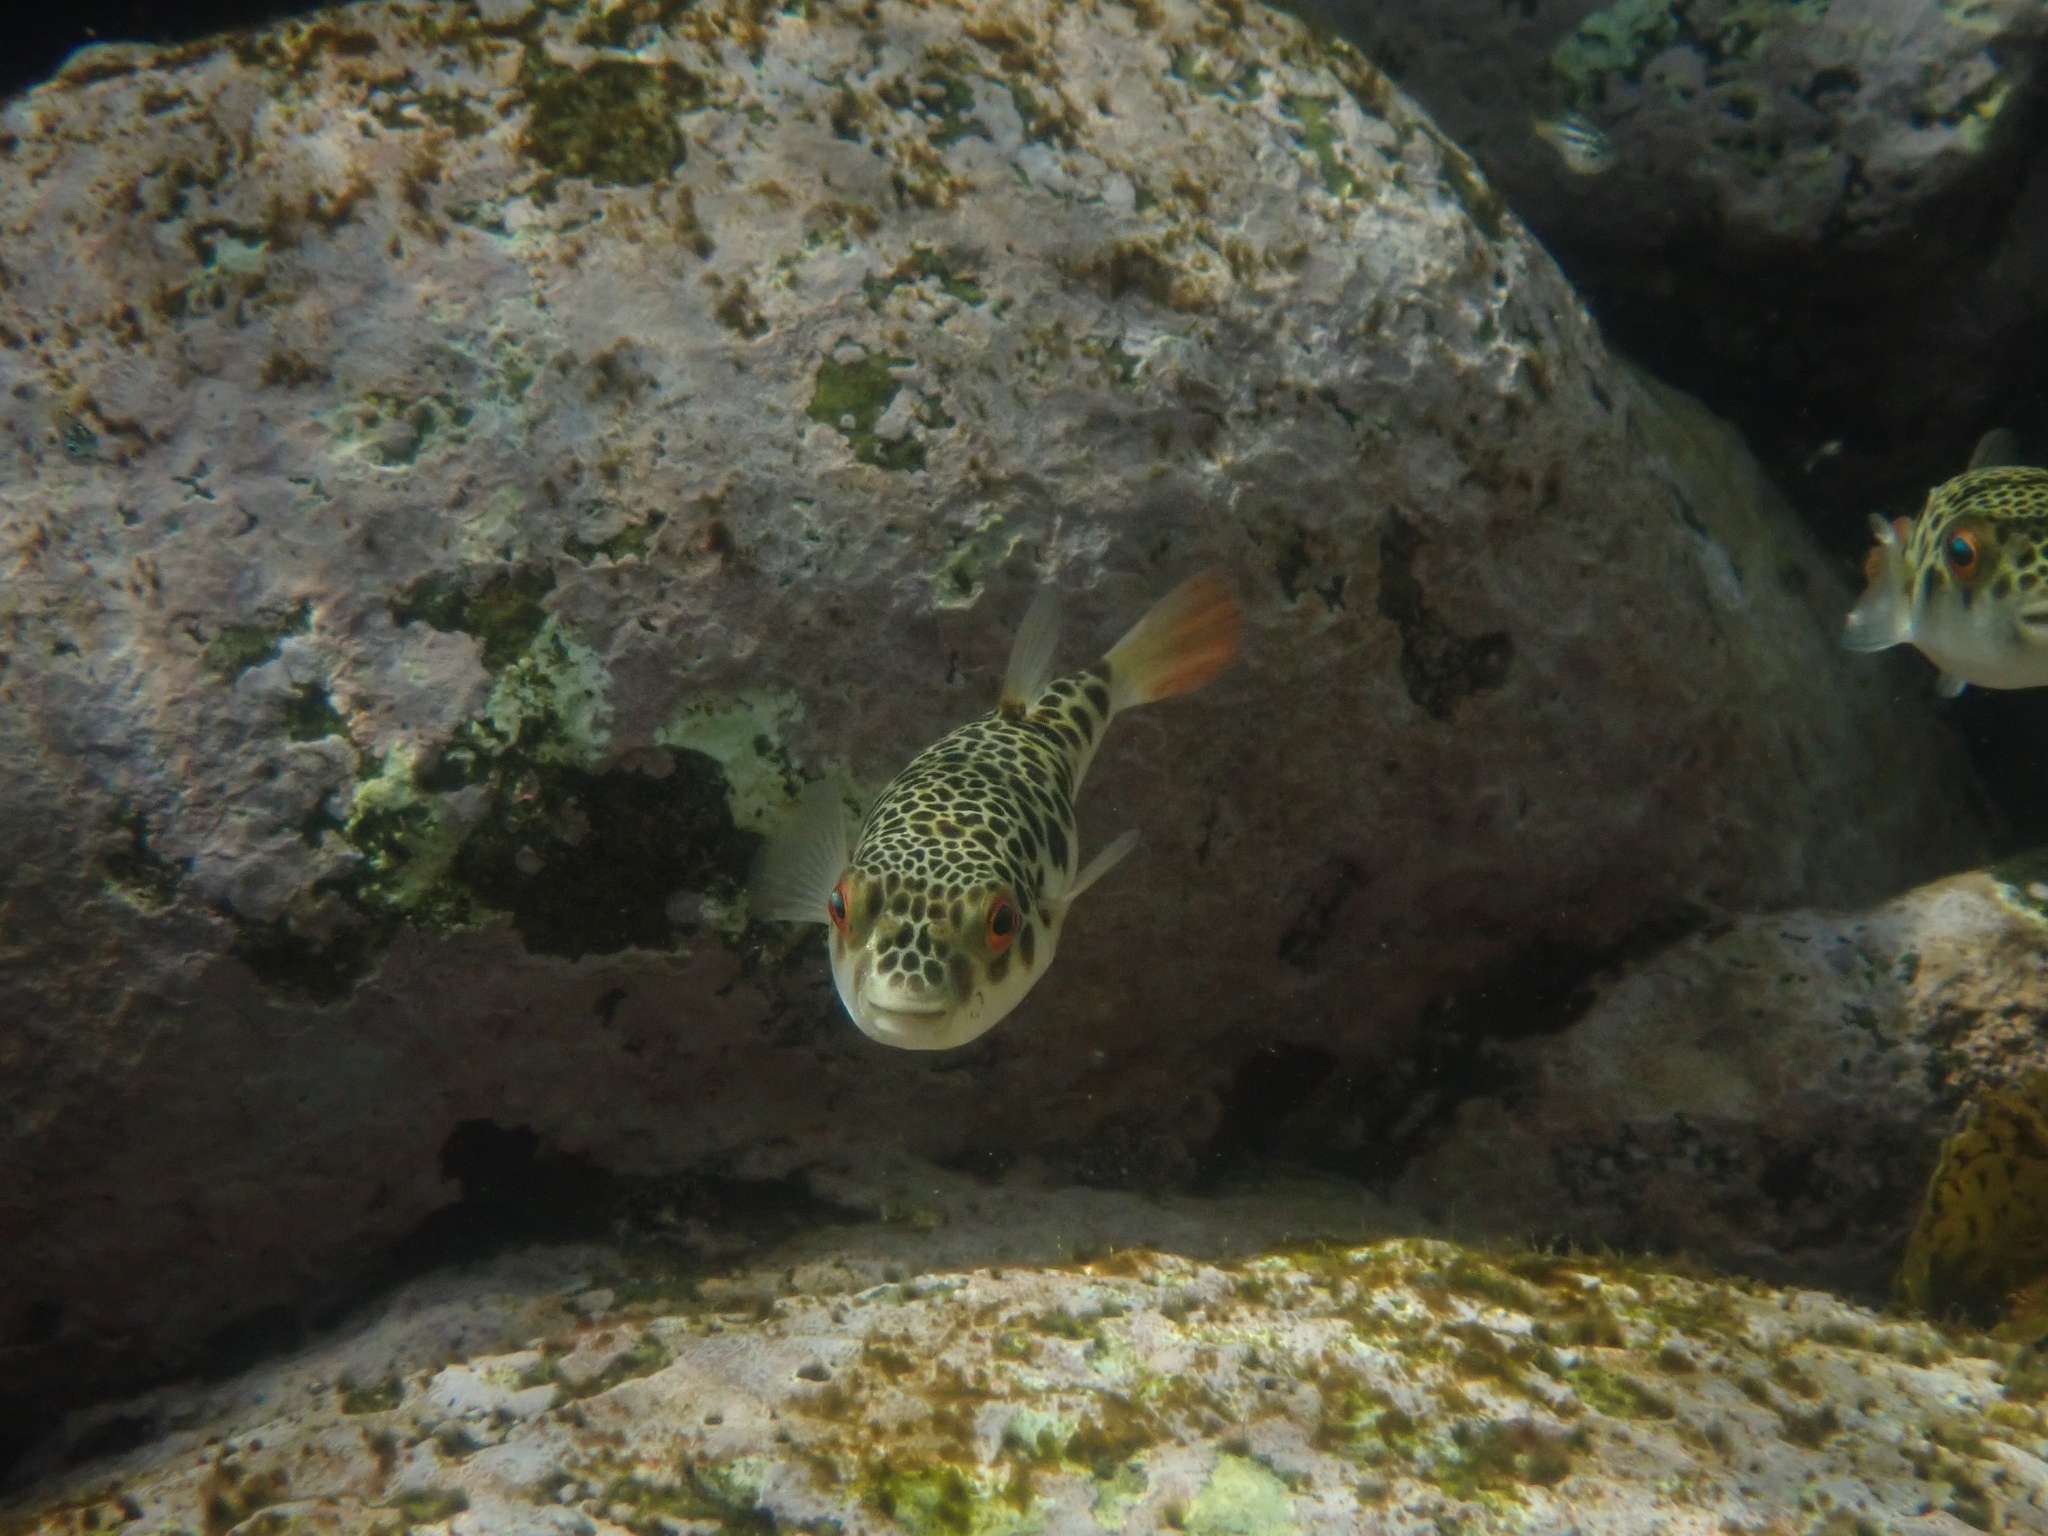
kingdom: Animalia
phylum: Chordata
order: Tetraodontiformes
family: Tetraodontidae
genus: Tetractenos
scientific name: Tetractenos glaber
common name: Smooth toadfish
